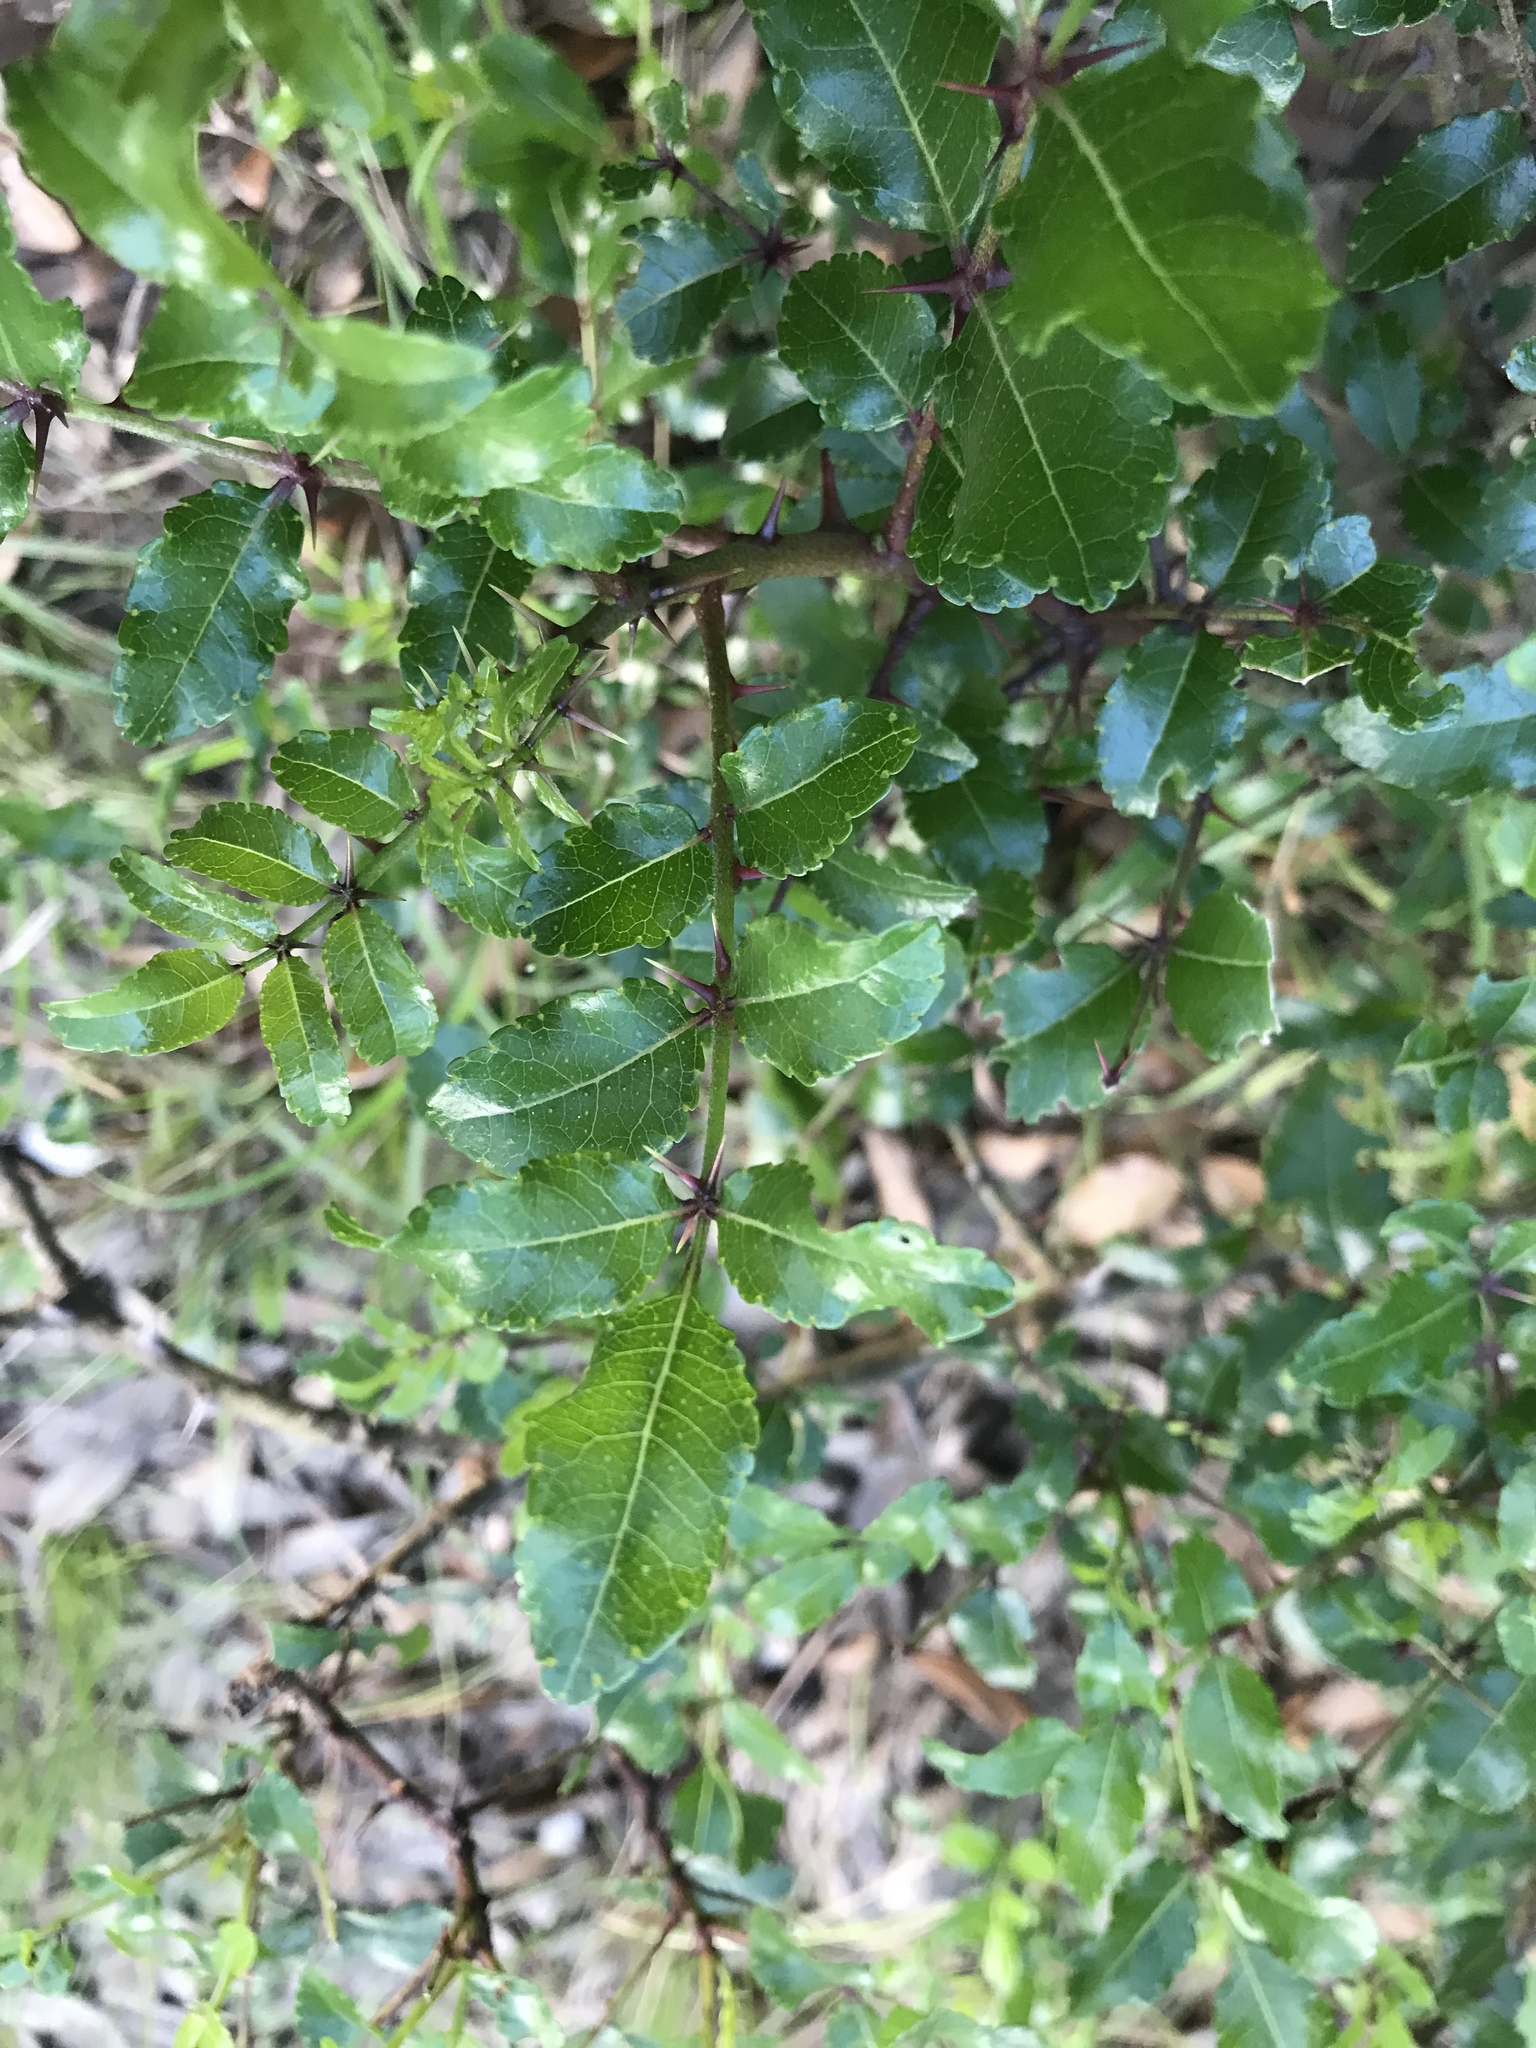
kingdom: Plantae
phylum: Tracheophyta
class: Magnoliopsida
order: Sapindales
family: Rutaceae
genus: Zanthoxylum
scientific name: Zanthoxylum clava-herculis
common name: Hercules'-club
